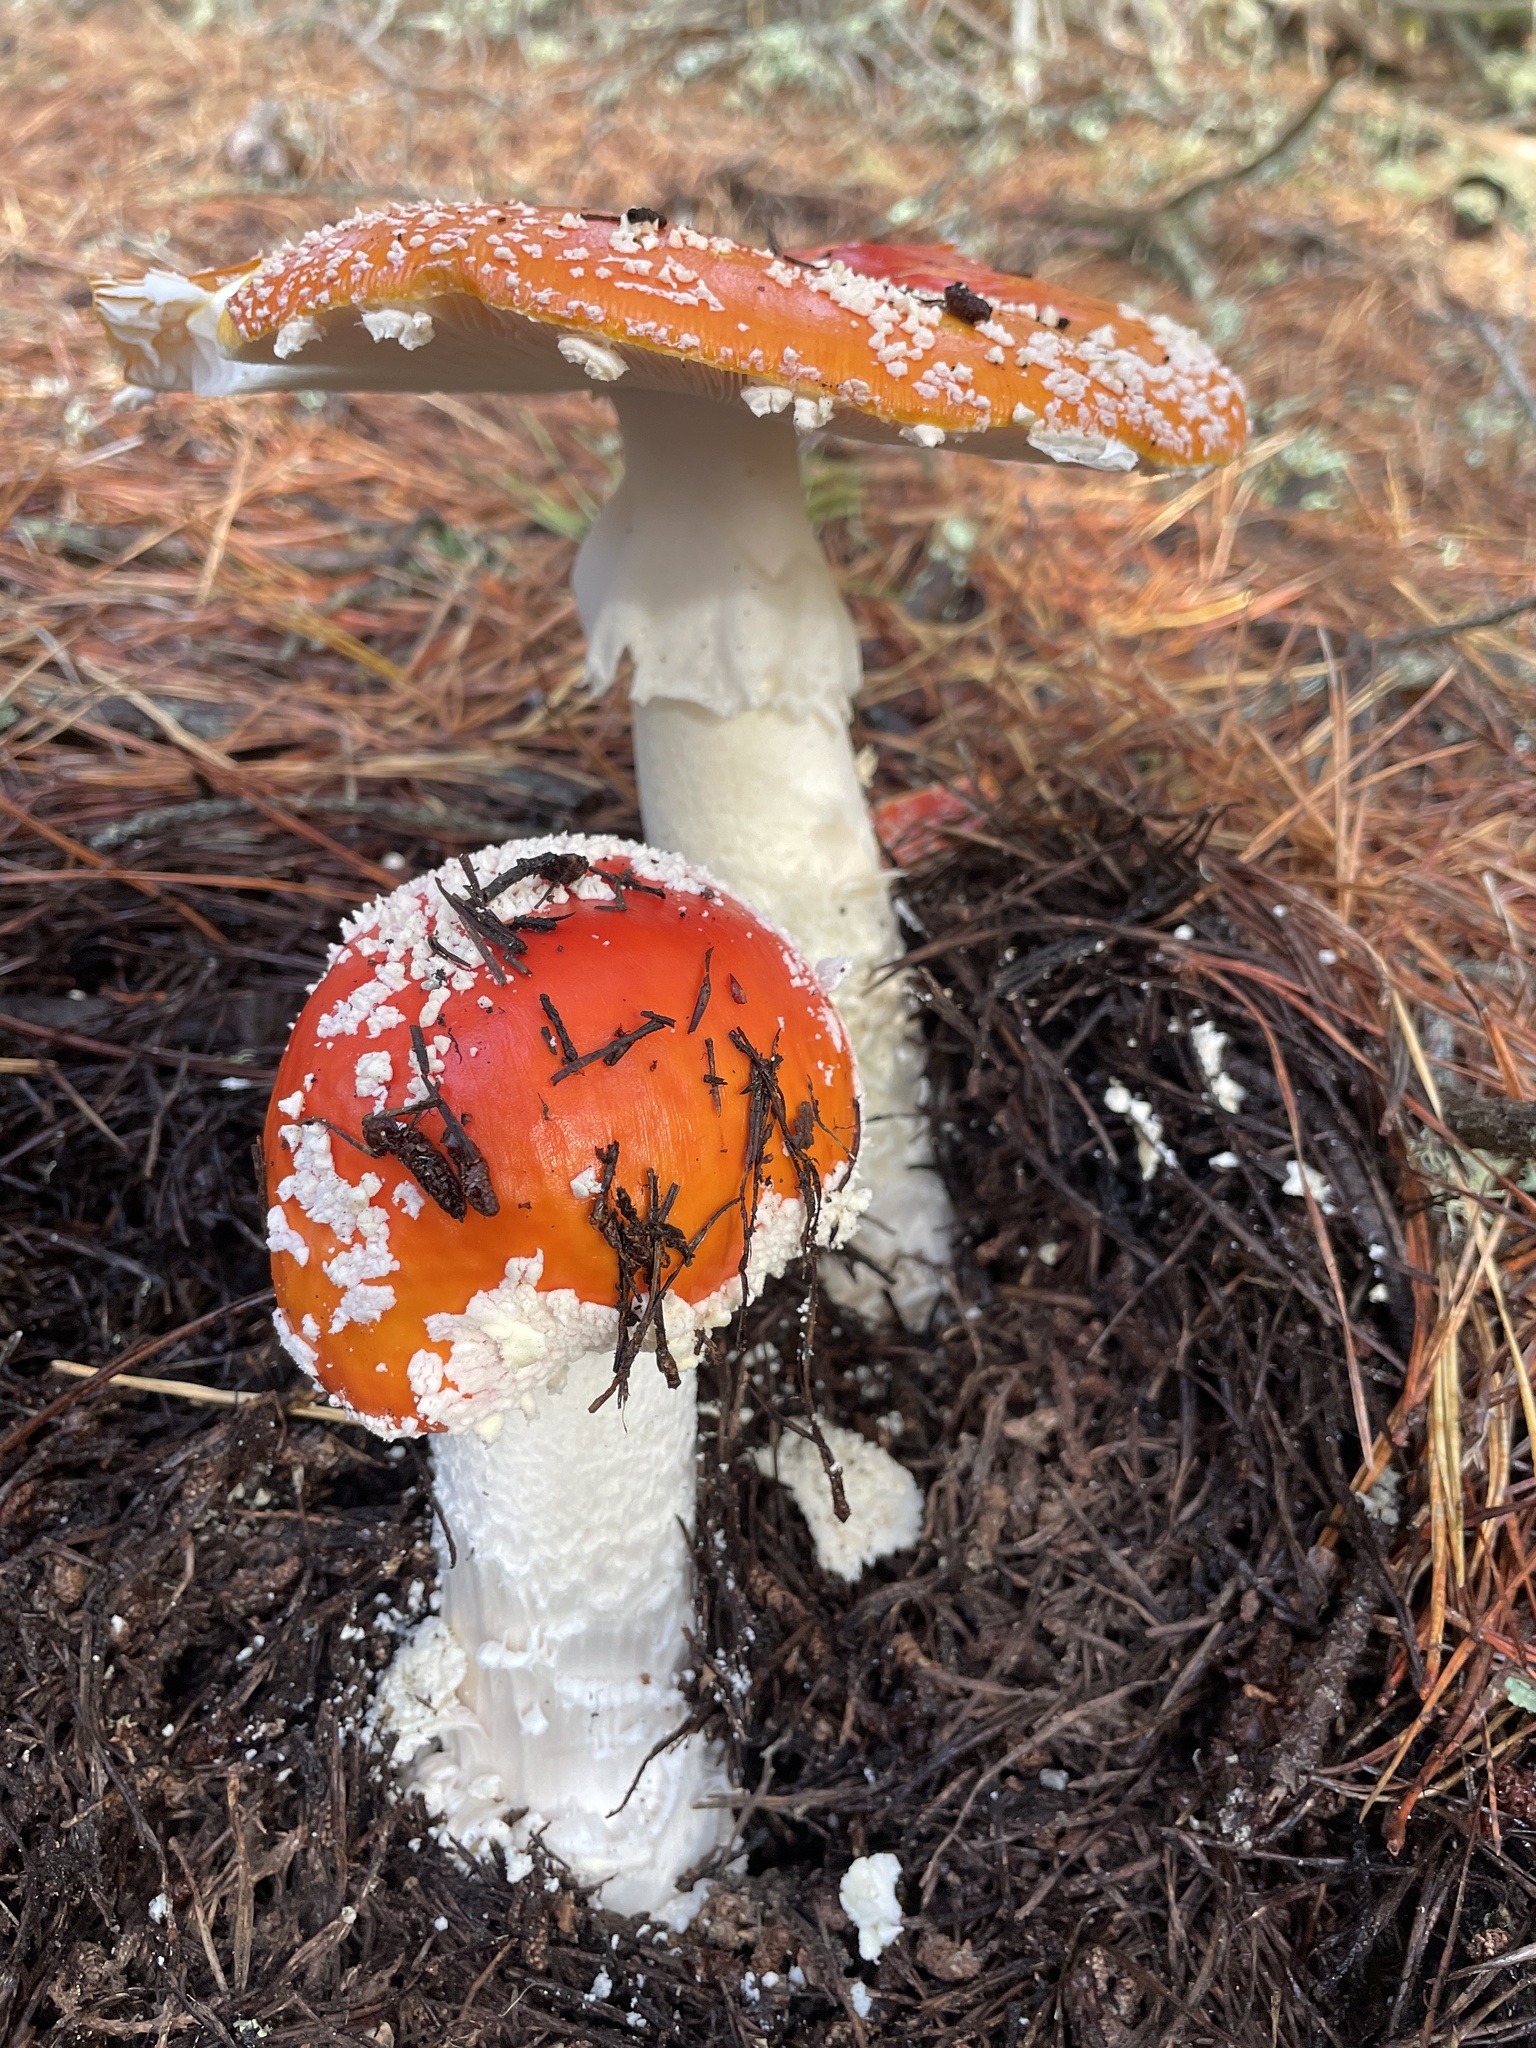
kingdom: Fungi
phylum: Basidiomycota
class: Agaricomycetes
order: Agaricales
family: Amanitaceae
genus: Amanita
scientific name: Amanita muscaria
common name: Fly agaric
